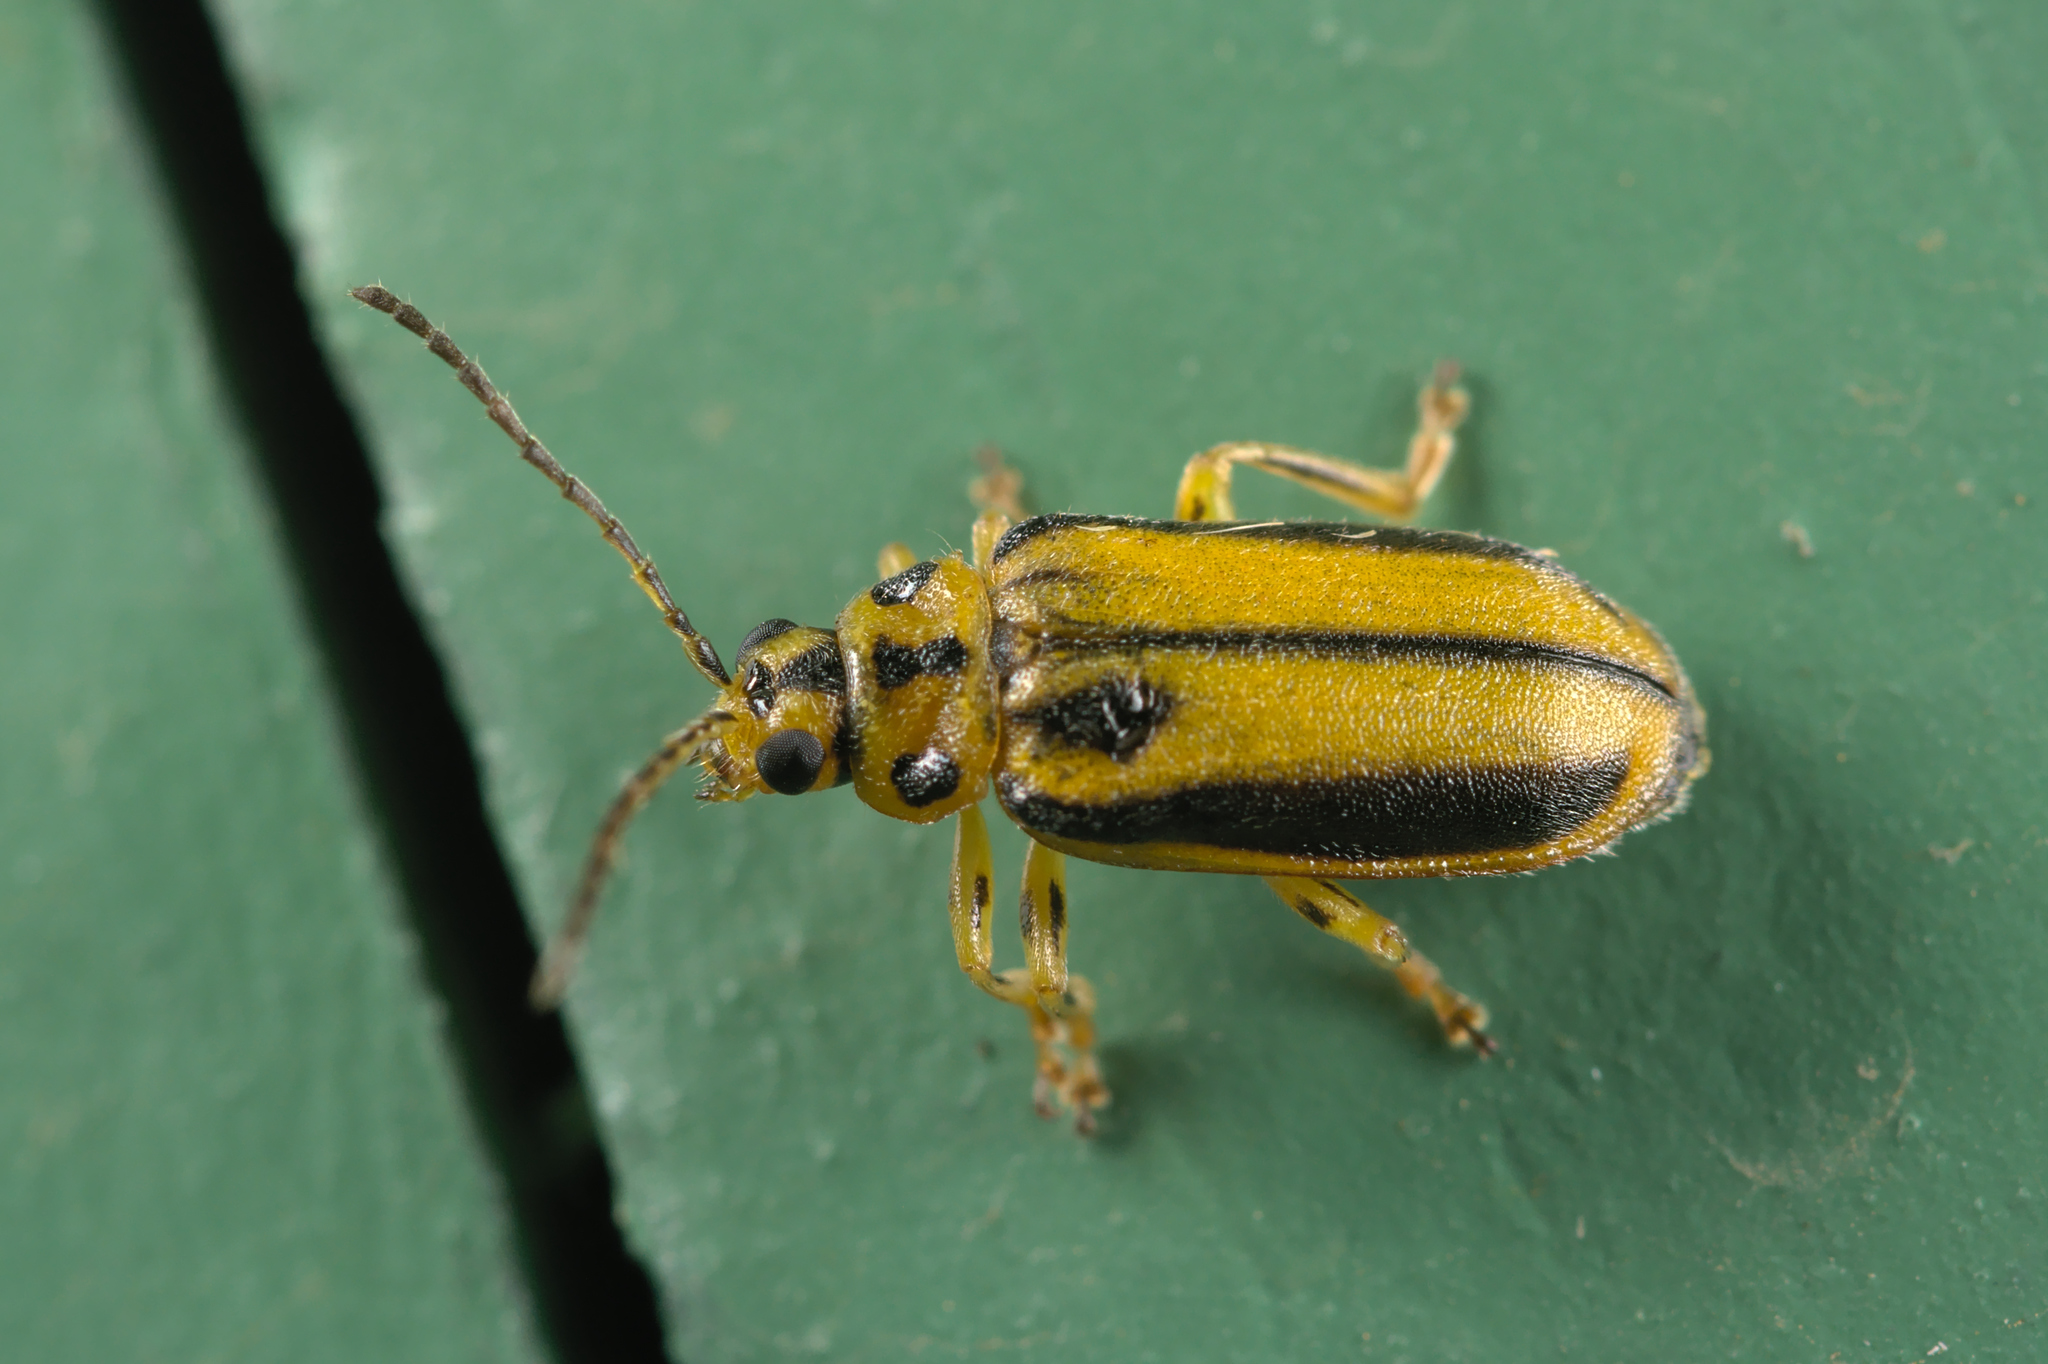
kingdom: Animalia
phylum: Arthropoda
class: Insecta
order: Coleoptera
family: Chrysomelidae
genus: Xanthogaleruca
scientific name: Xanthogaleruca luteola
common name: Elm leaf beetle
